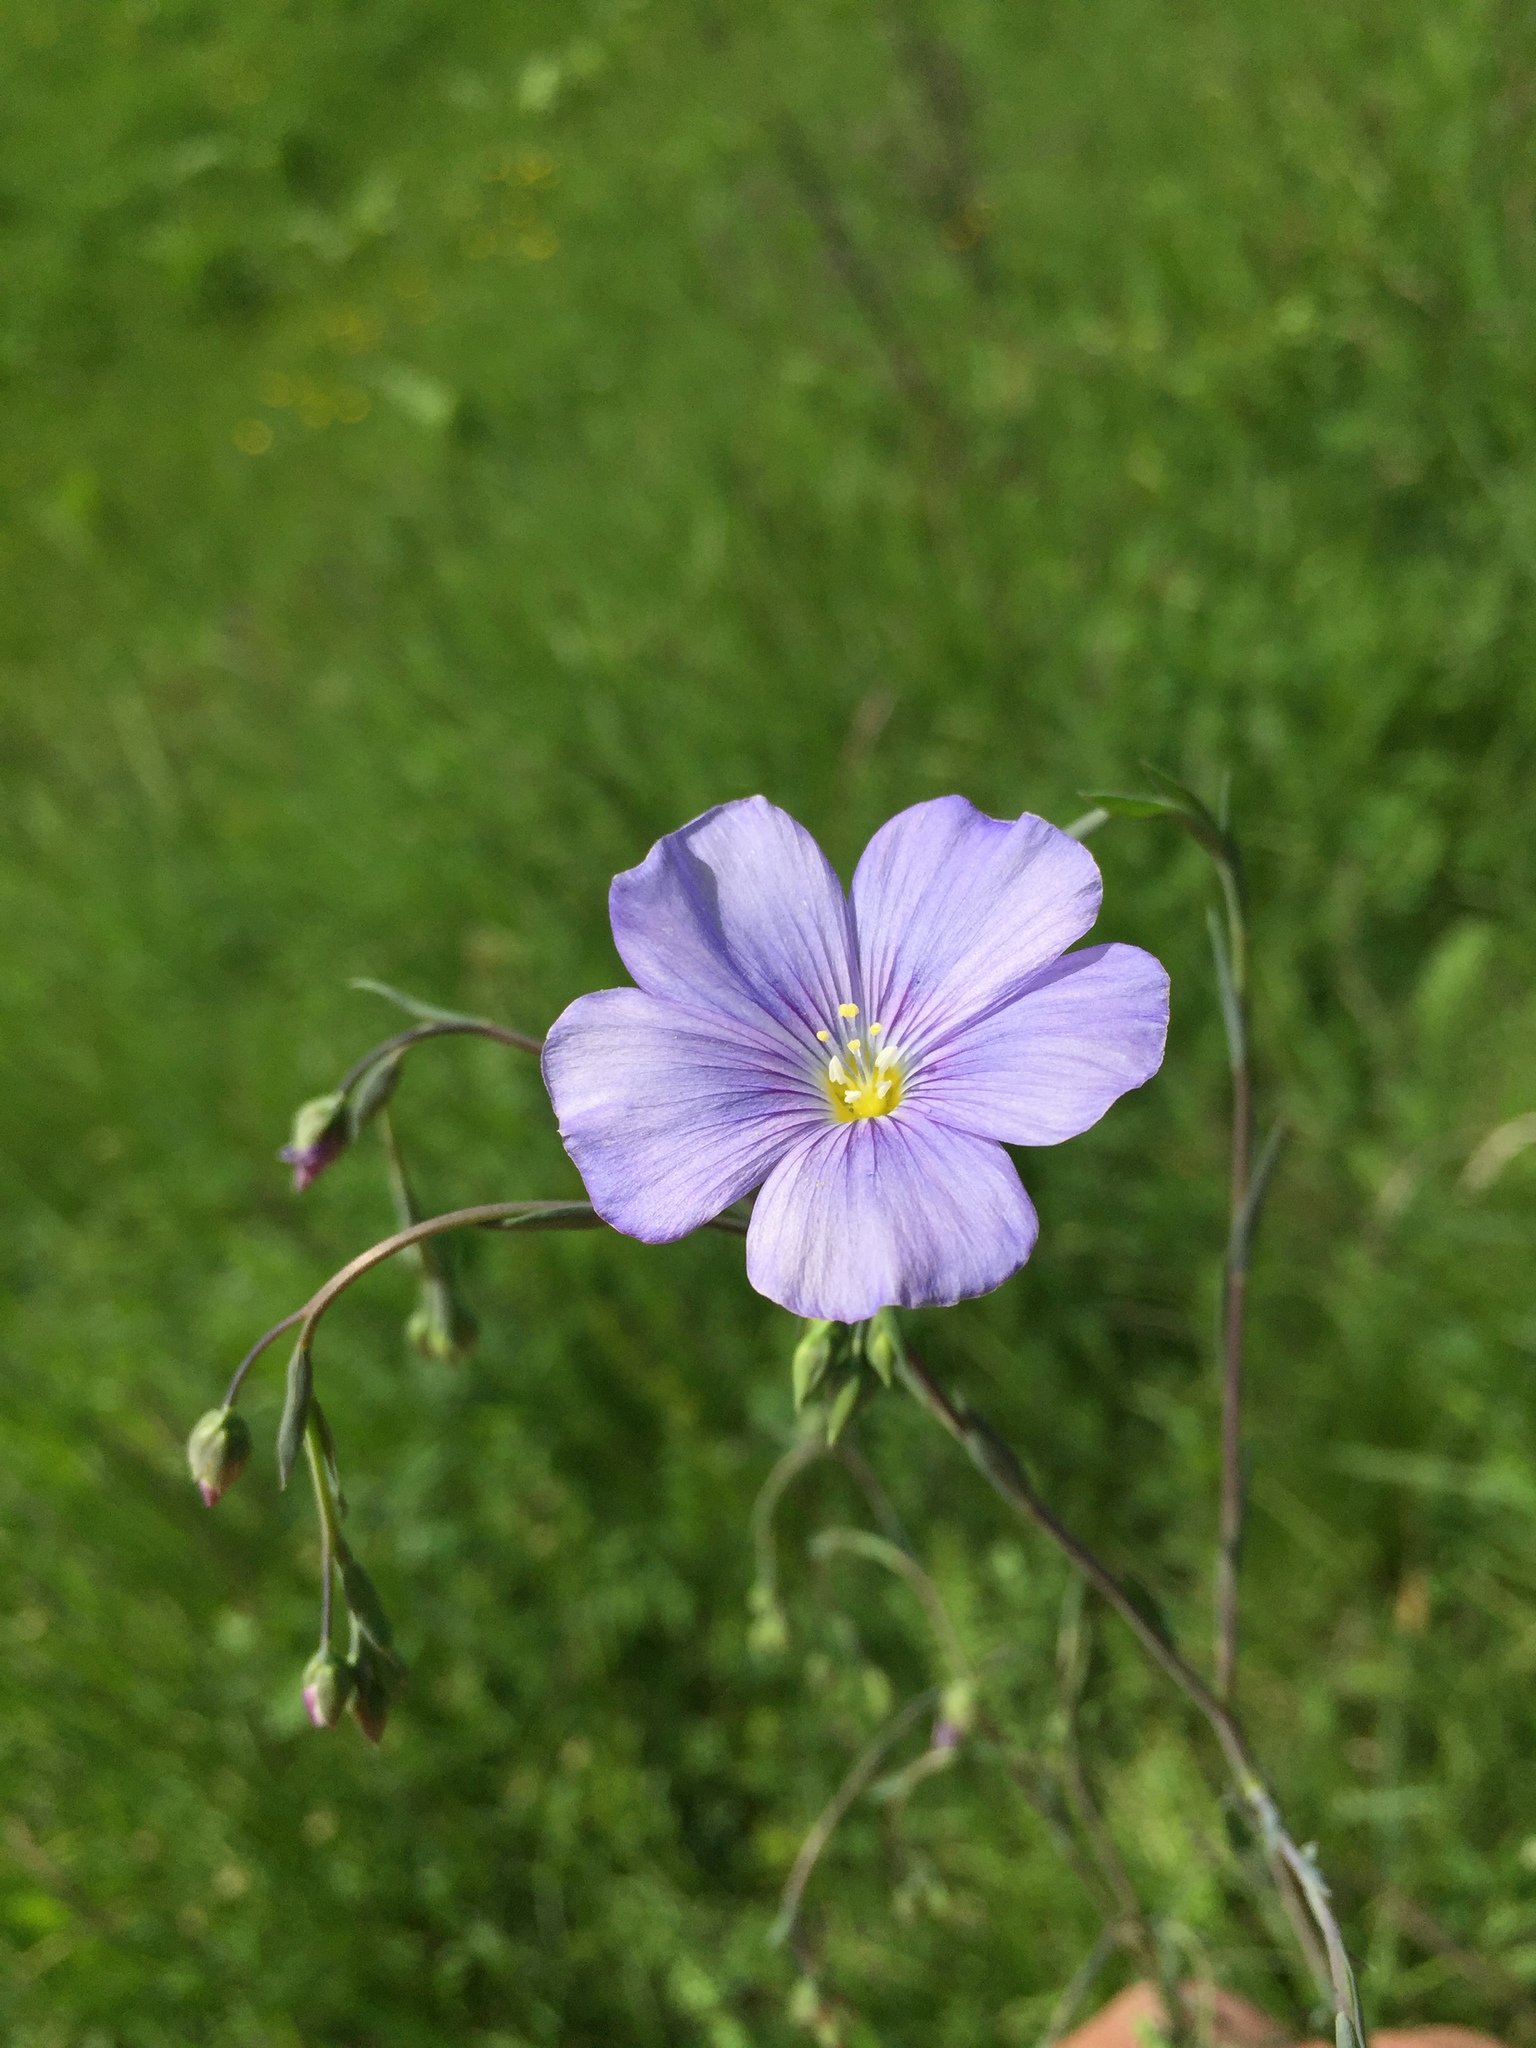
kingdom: Plantae
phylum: Tracheophyta
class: Magnoliopsida
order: Malpighiales
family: Linaceae
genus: Linum
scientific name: Linum austriacum
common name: Austrian flax
